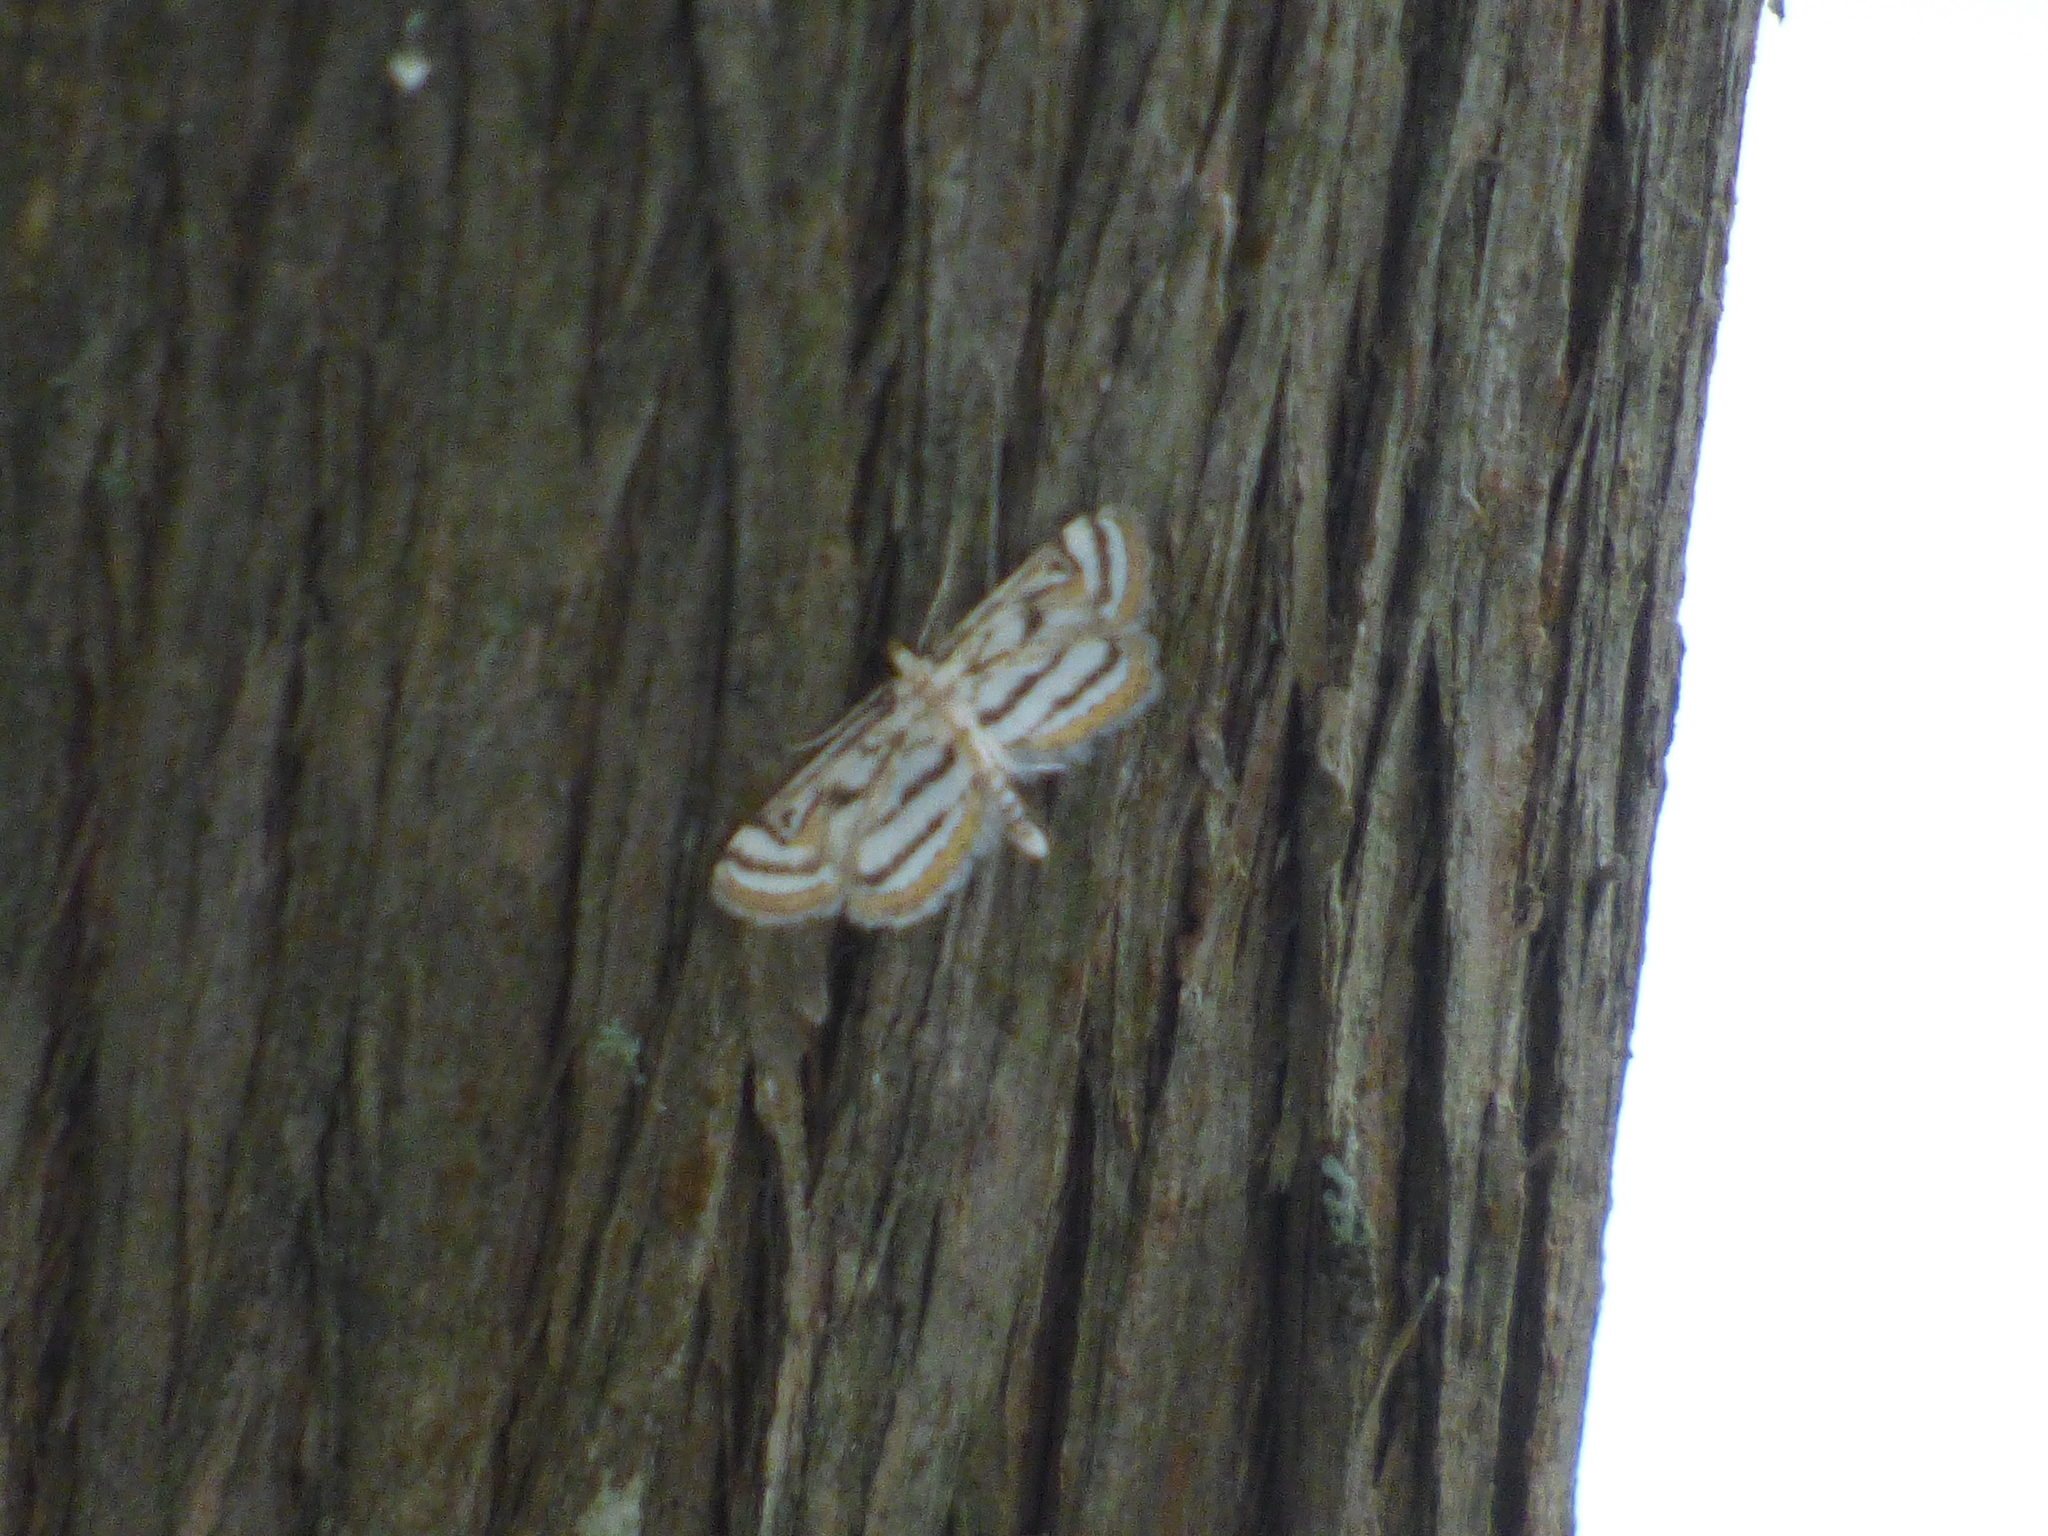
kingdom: Animalia
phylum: Arthropoda
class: Insecta
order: Lepidoptera
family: Crambidae
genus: Parapoynx
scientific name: Parapoynx badiusalis
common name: Chestnut-marked pondweed moth
